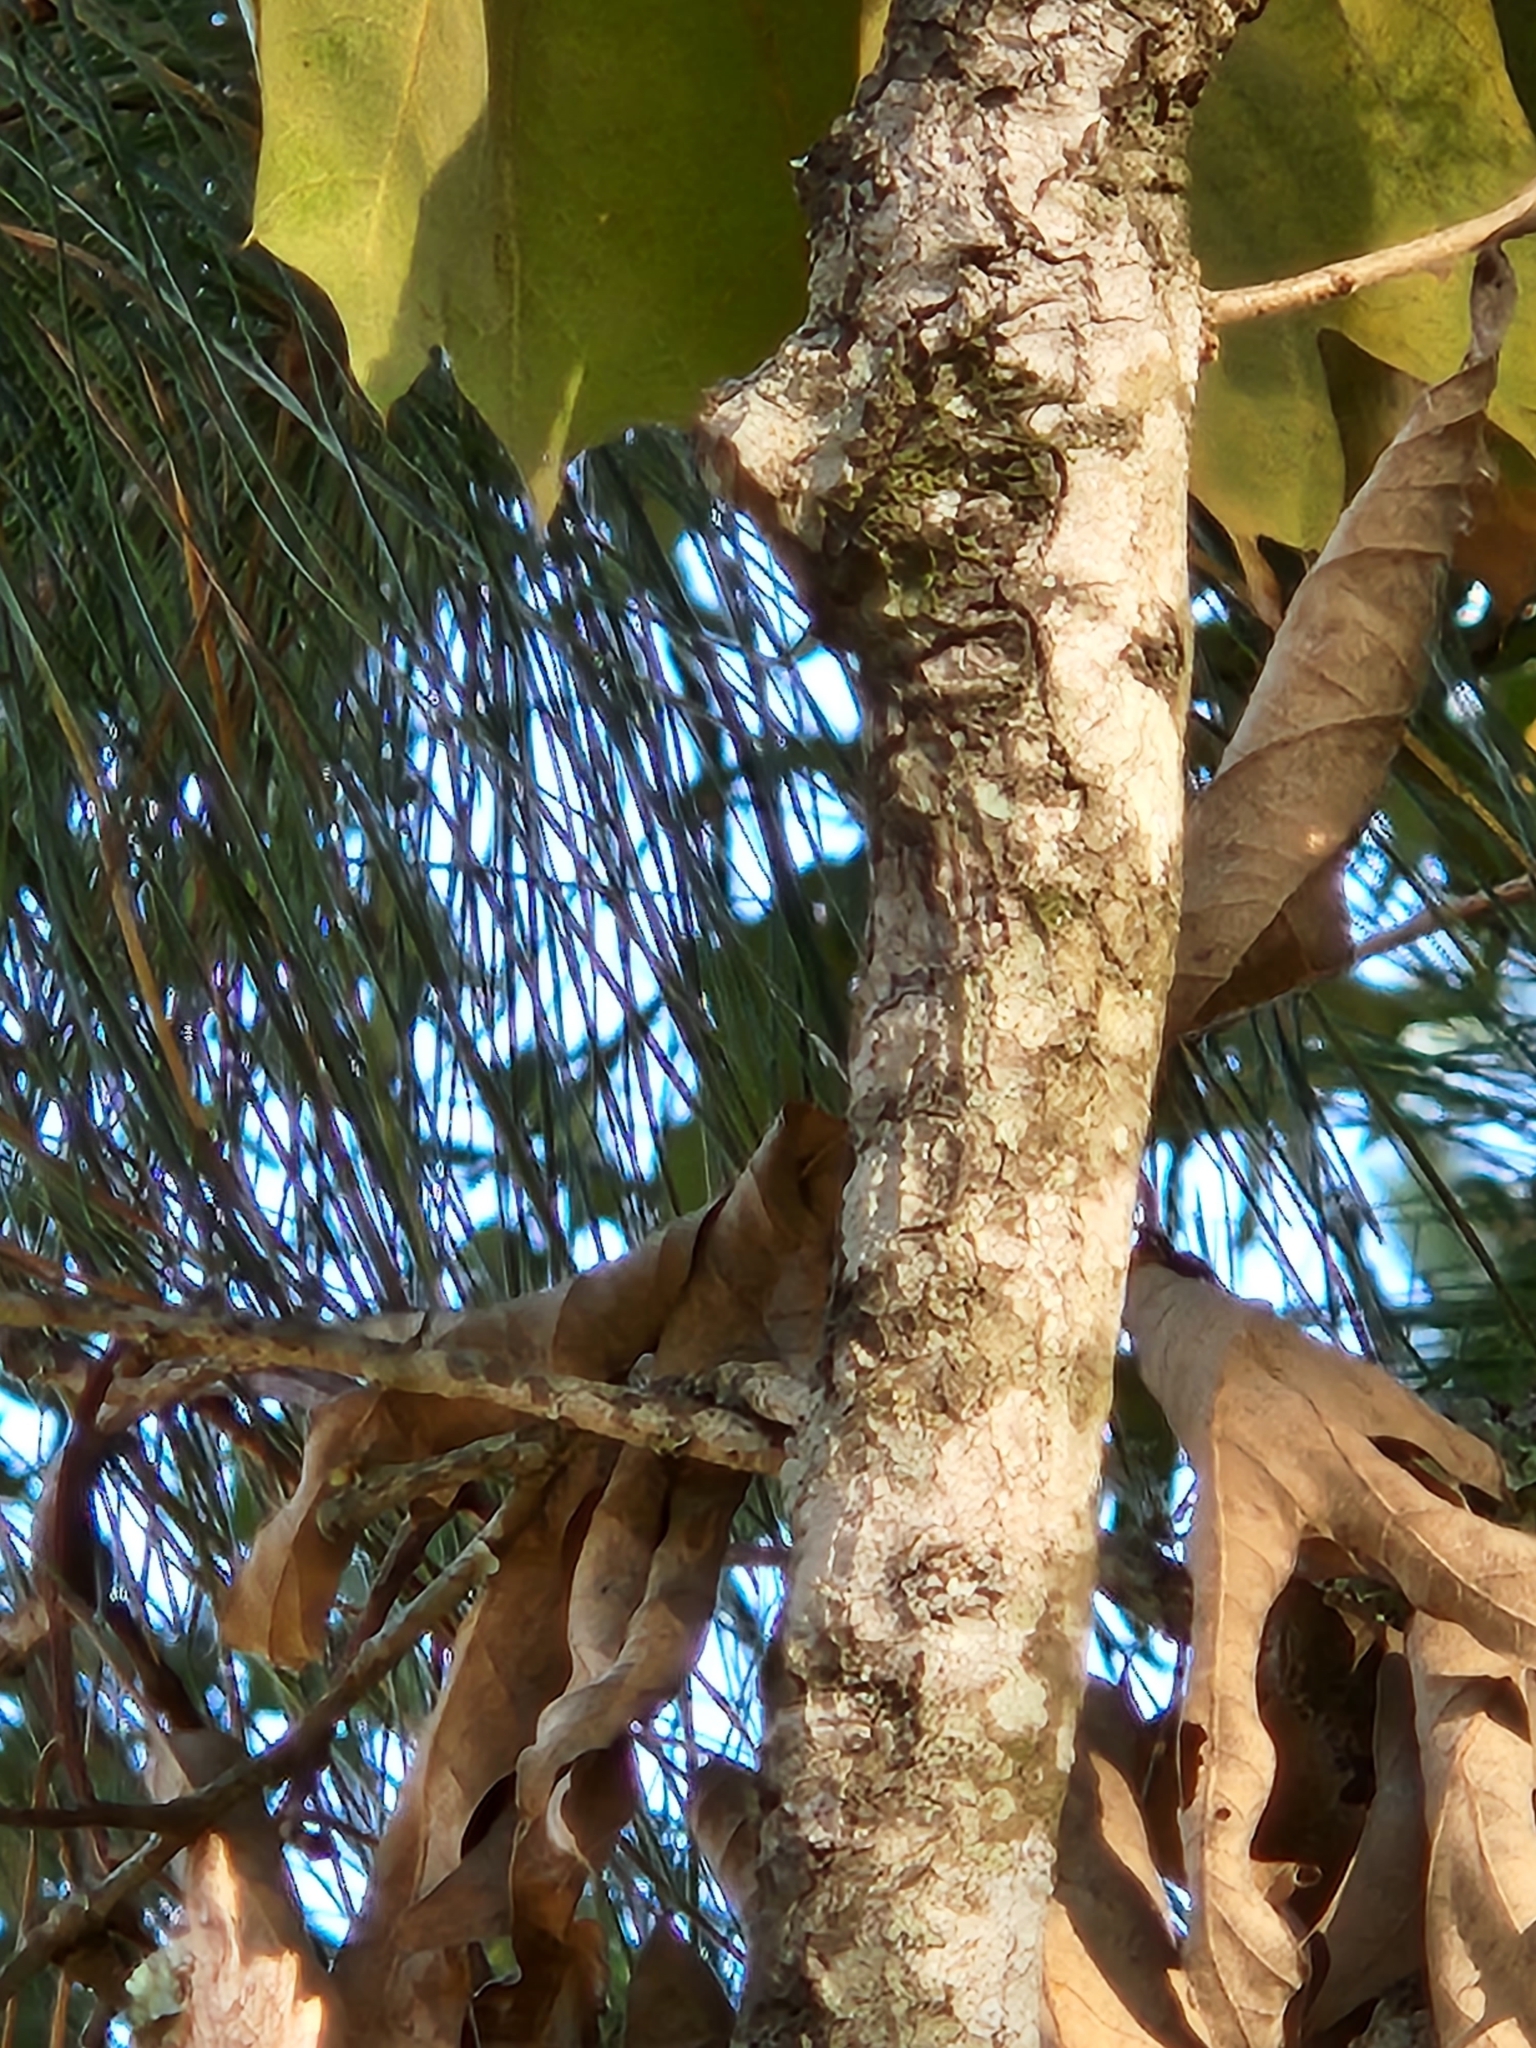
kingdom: Plantae
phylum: Tracheophyta
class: Magnoliopsida
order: Fagales
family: Fagaceae
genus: Quercus
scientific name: Quercus falcata
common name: Southern red oak
